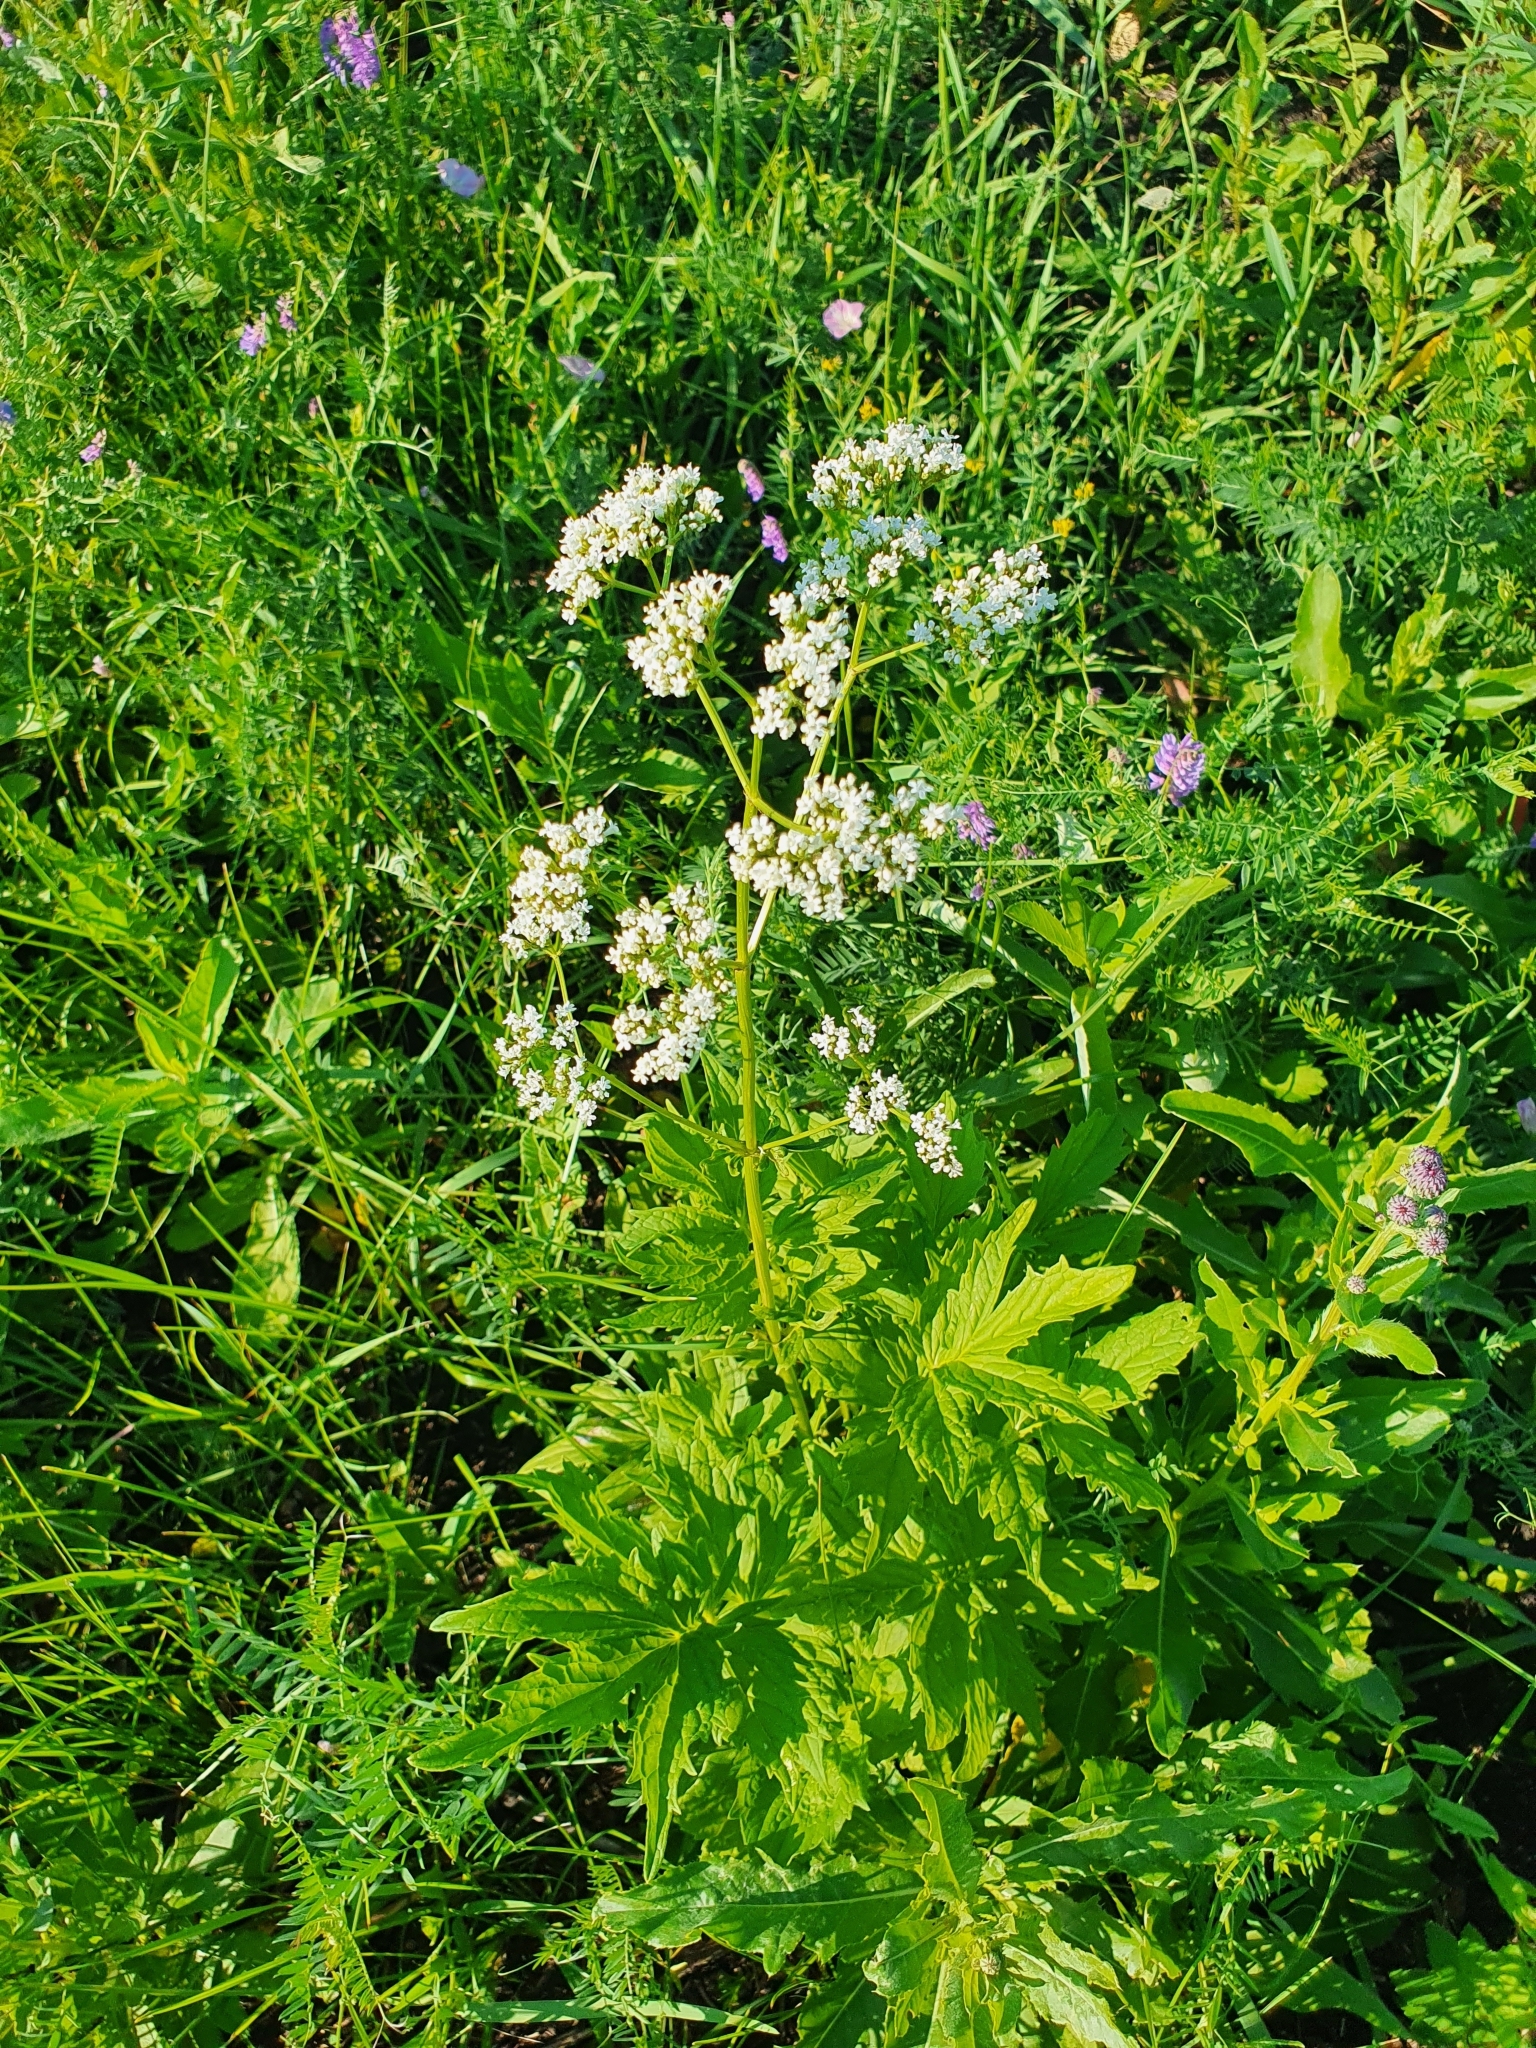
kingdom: Plantae
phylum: Tracheophyta
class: Magnoliopsida
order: Dipsacales
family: Caprifoliaceae
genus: Valeriana
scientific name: Valeriana officinalis
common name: Common valerian
